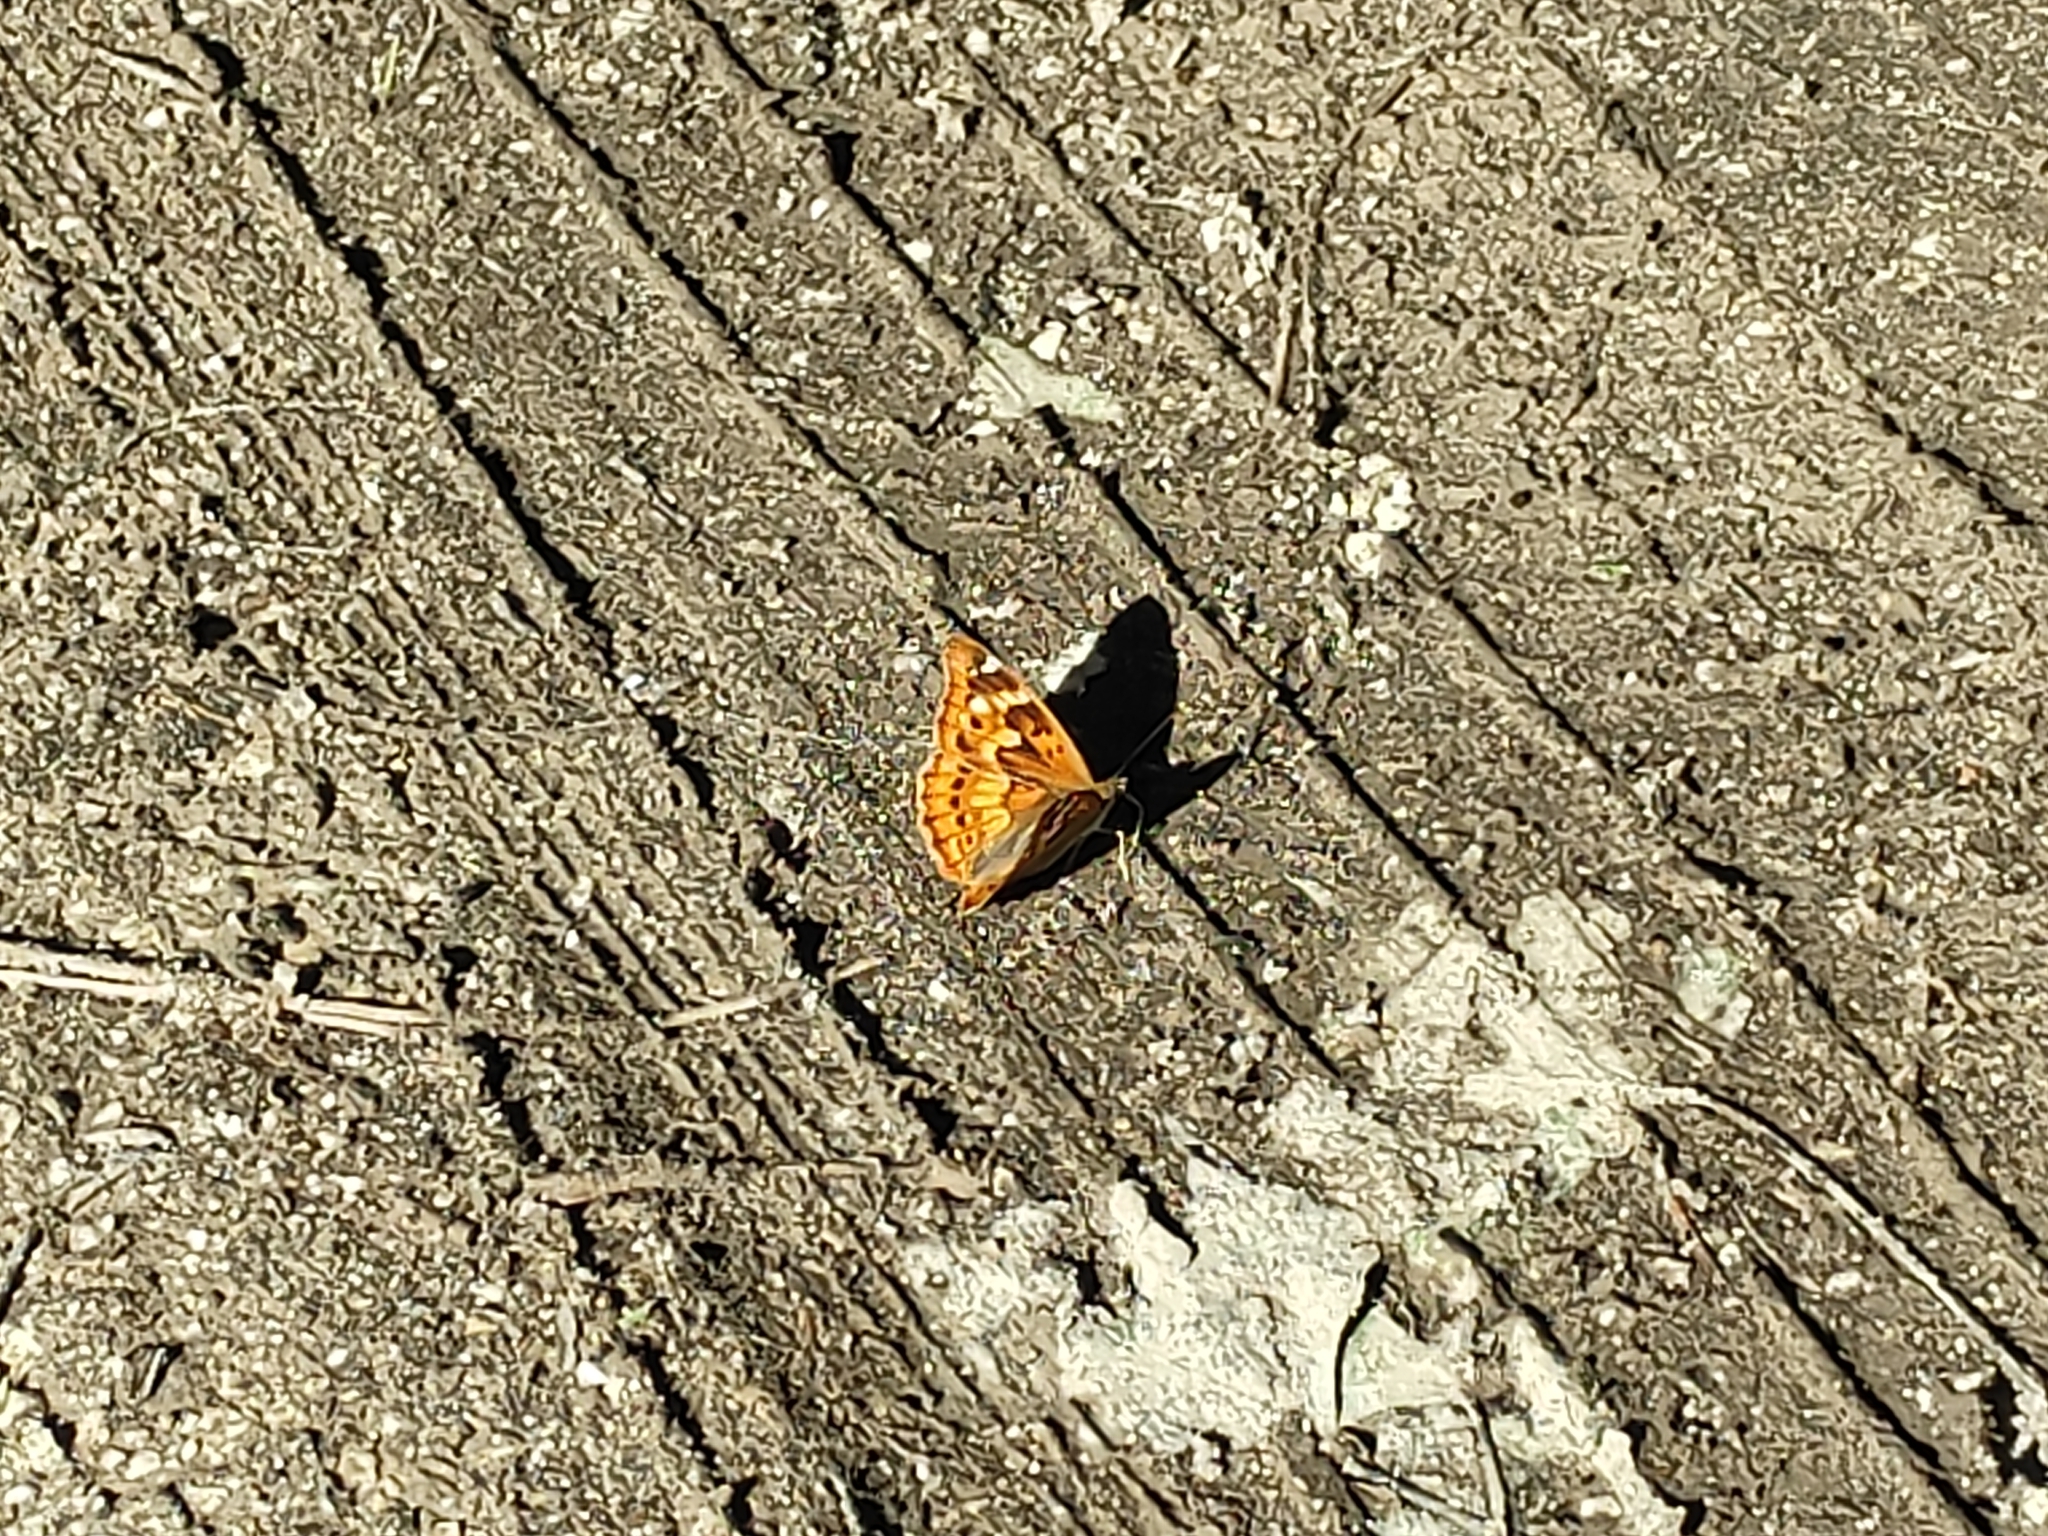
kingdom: Animalia
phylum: Arthropoda
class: Insecta
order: Lepidoptera
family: Nymphalidae
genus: Apatura
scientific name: Apatura ilia
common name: Lesser purple emperor
